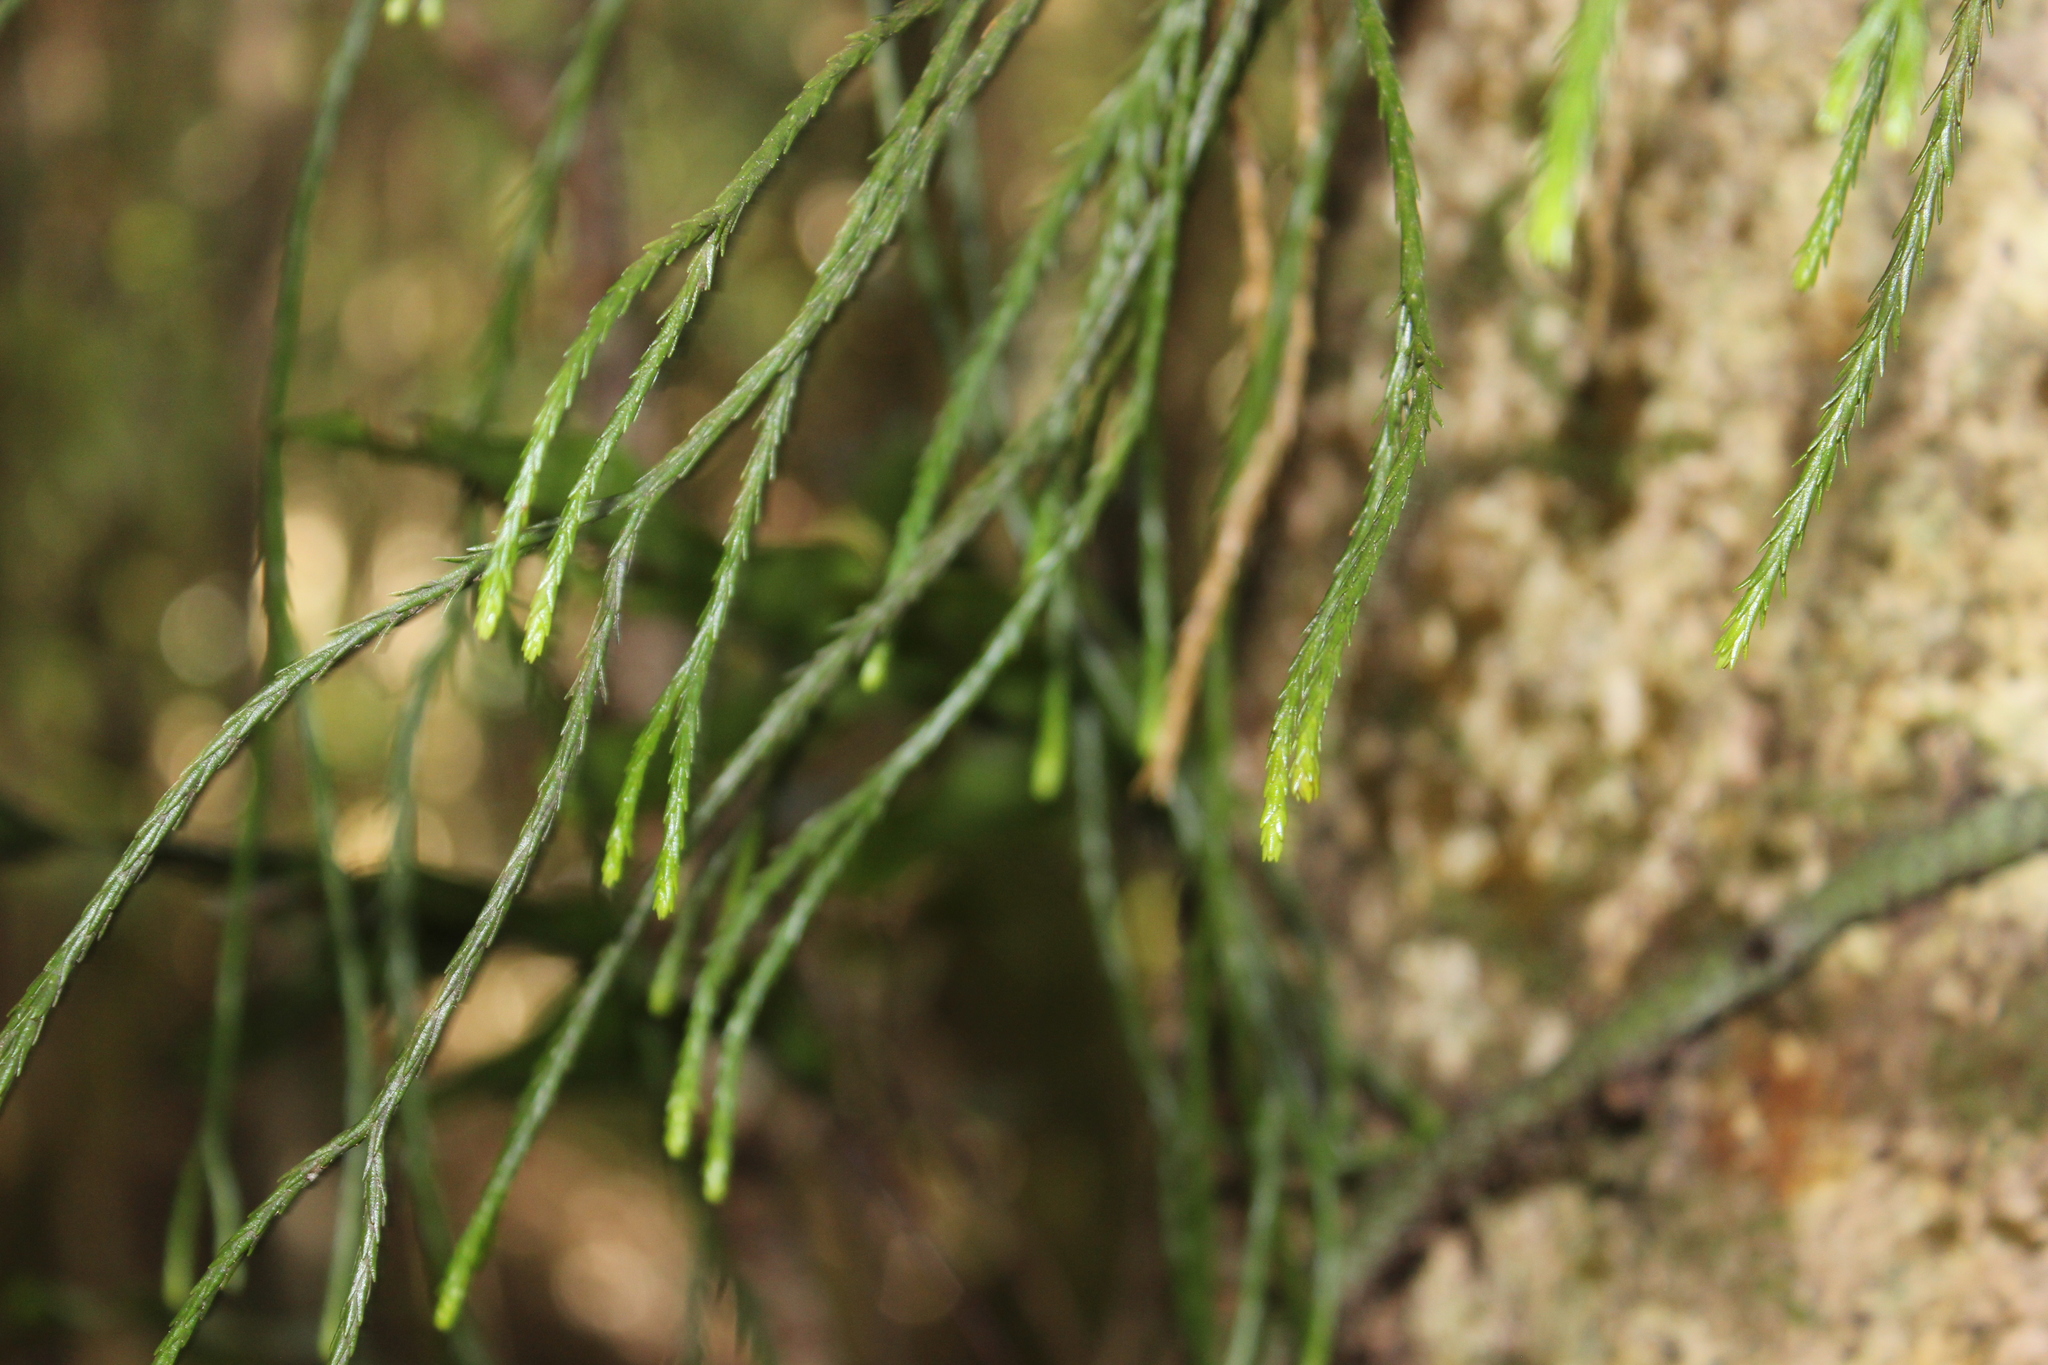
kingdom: Plantae
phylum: Tracheophyta
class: Lycopodiopsida
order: Lycopodiales
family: Lycopodiaceae
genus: Phlegmariurus
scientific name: Phlegmariurus billardierei
